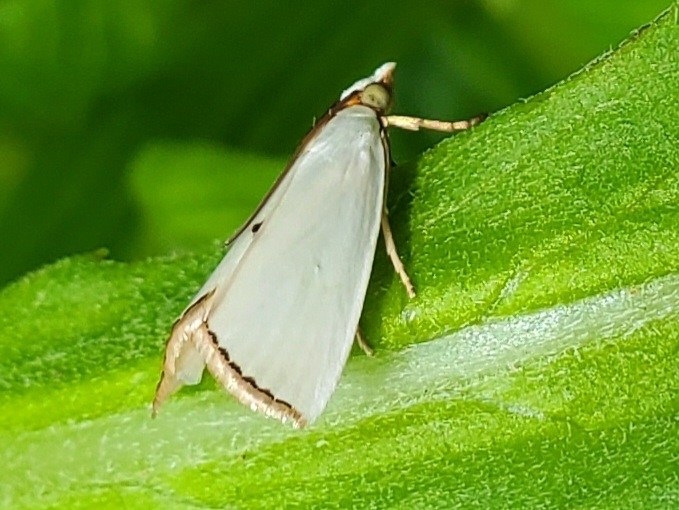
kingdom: Animalia
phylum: Arthropoda
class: Insecta
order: Lepidoptera
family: Crambidae
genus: Argyria
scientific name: Argyria nivalis
